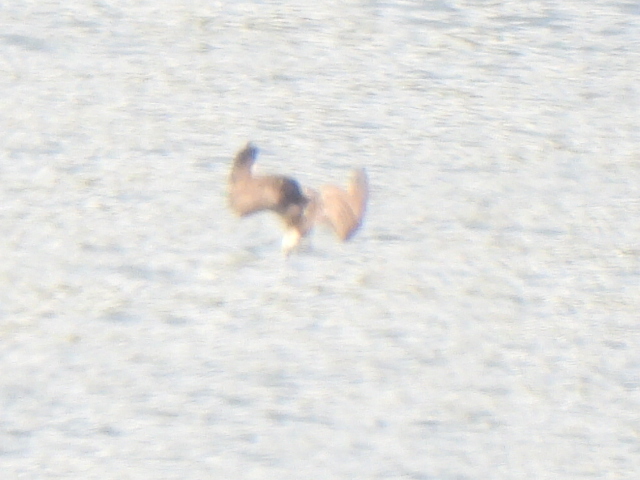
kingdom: Animalia
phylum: Chordata
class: Aves
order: Accipitriformes
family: Pandionidae
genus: Pandion
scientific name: Pandion haliaetus
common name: Osprey
